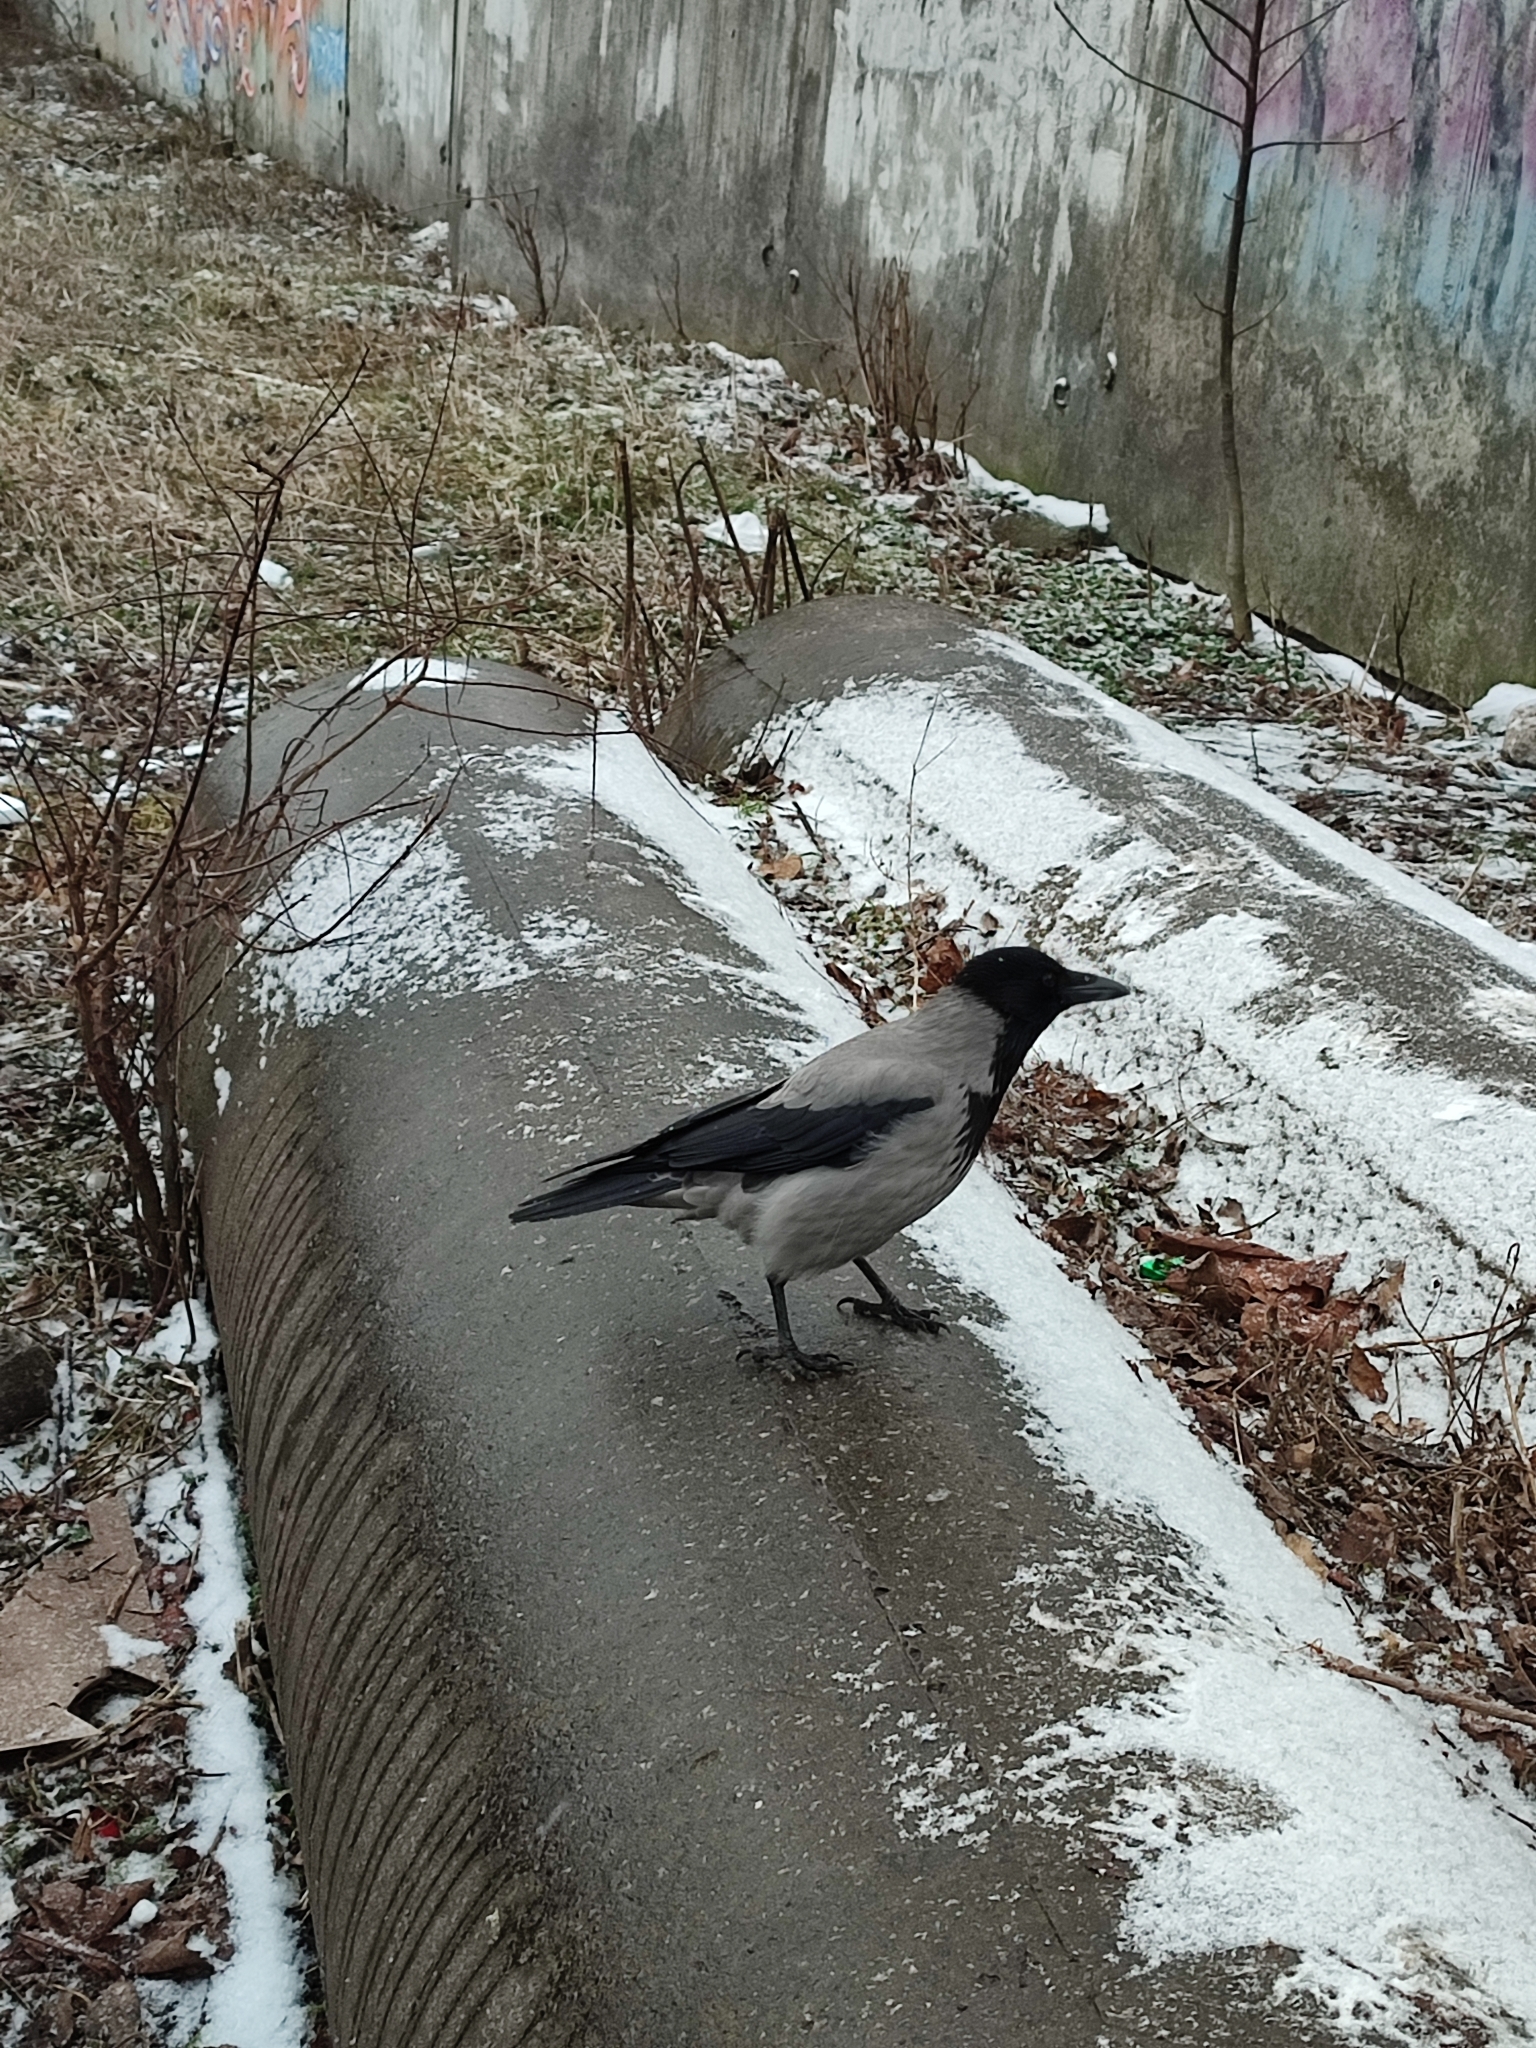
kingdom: Animalia
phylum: Chordata
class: Aves
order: Passeriformes
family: Corvidae
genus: Corvus
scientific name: Corvus cornix
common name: Hooded crow
